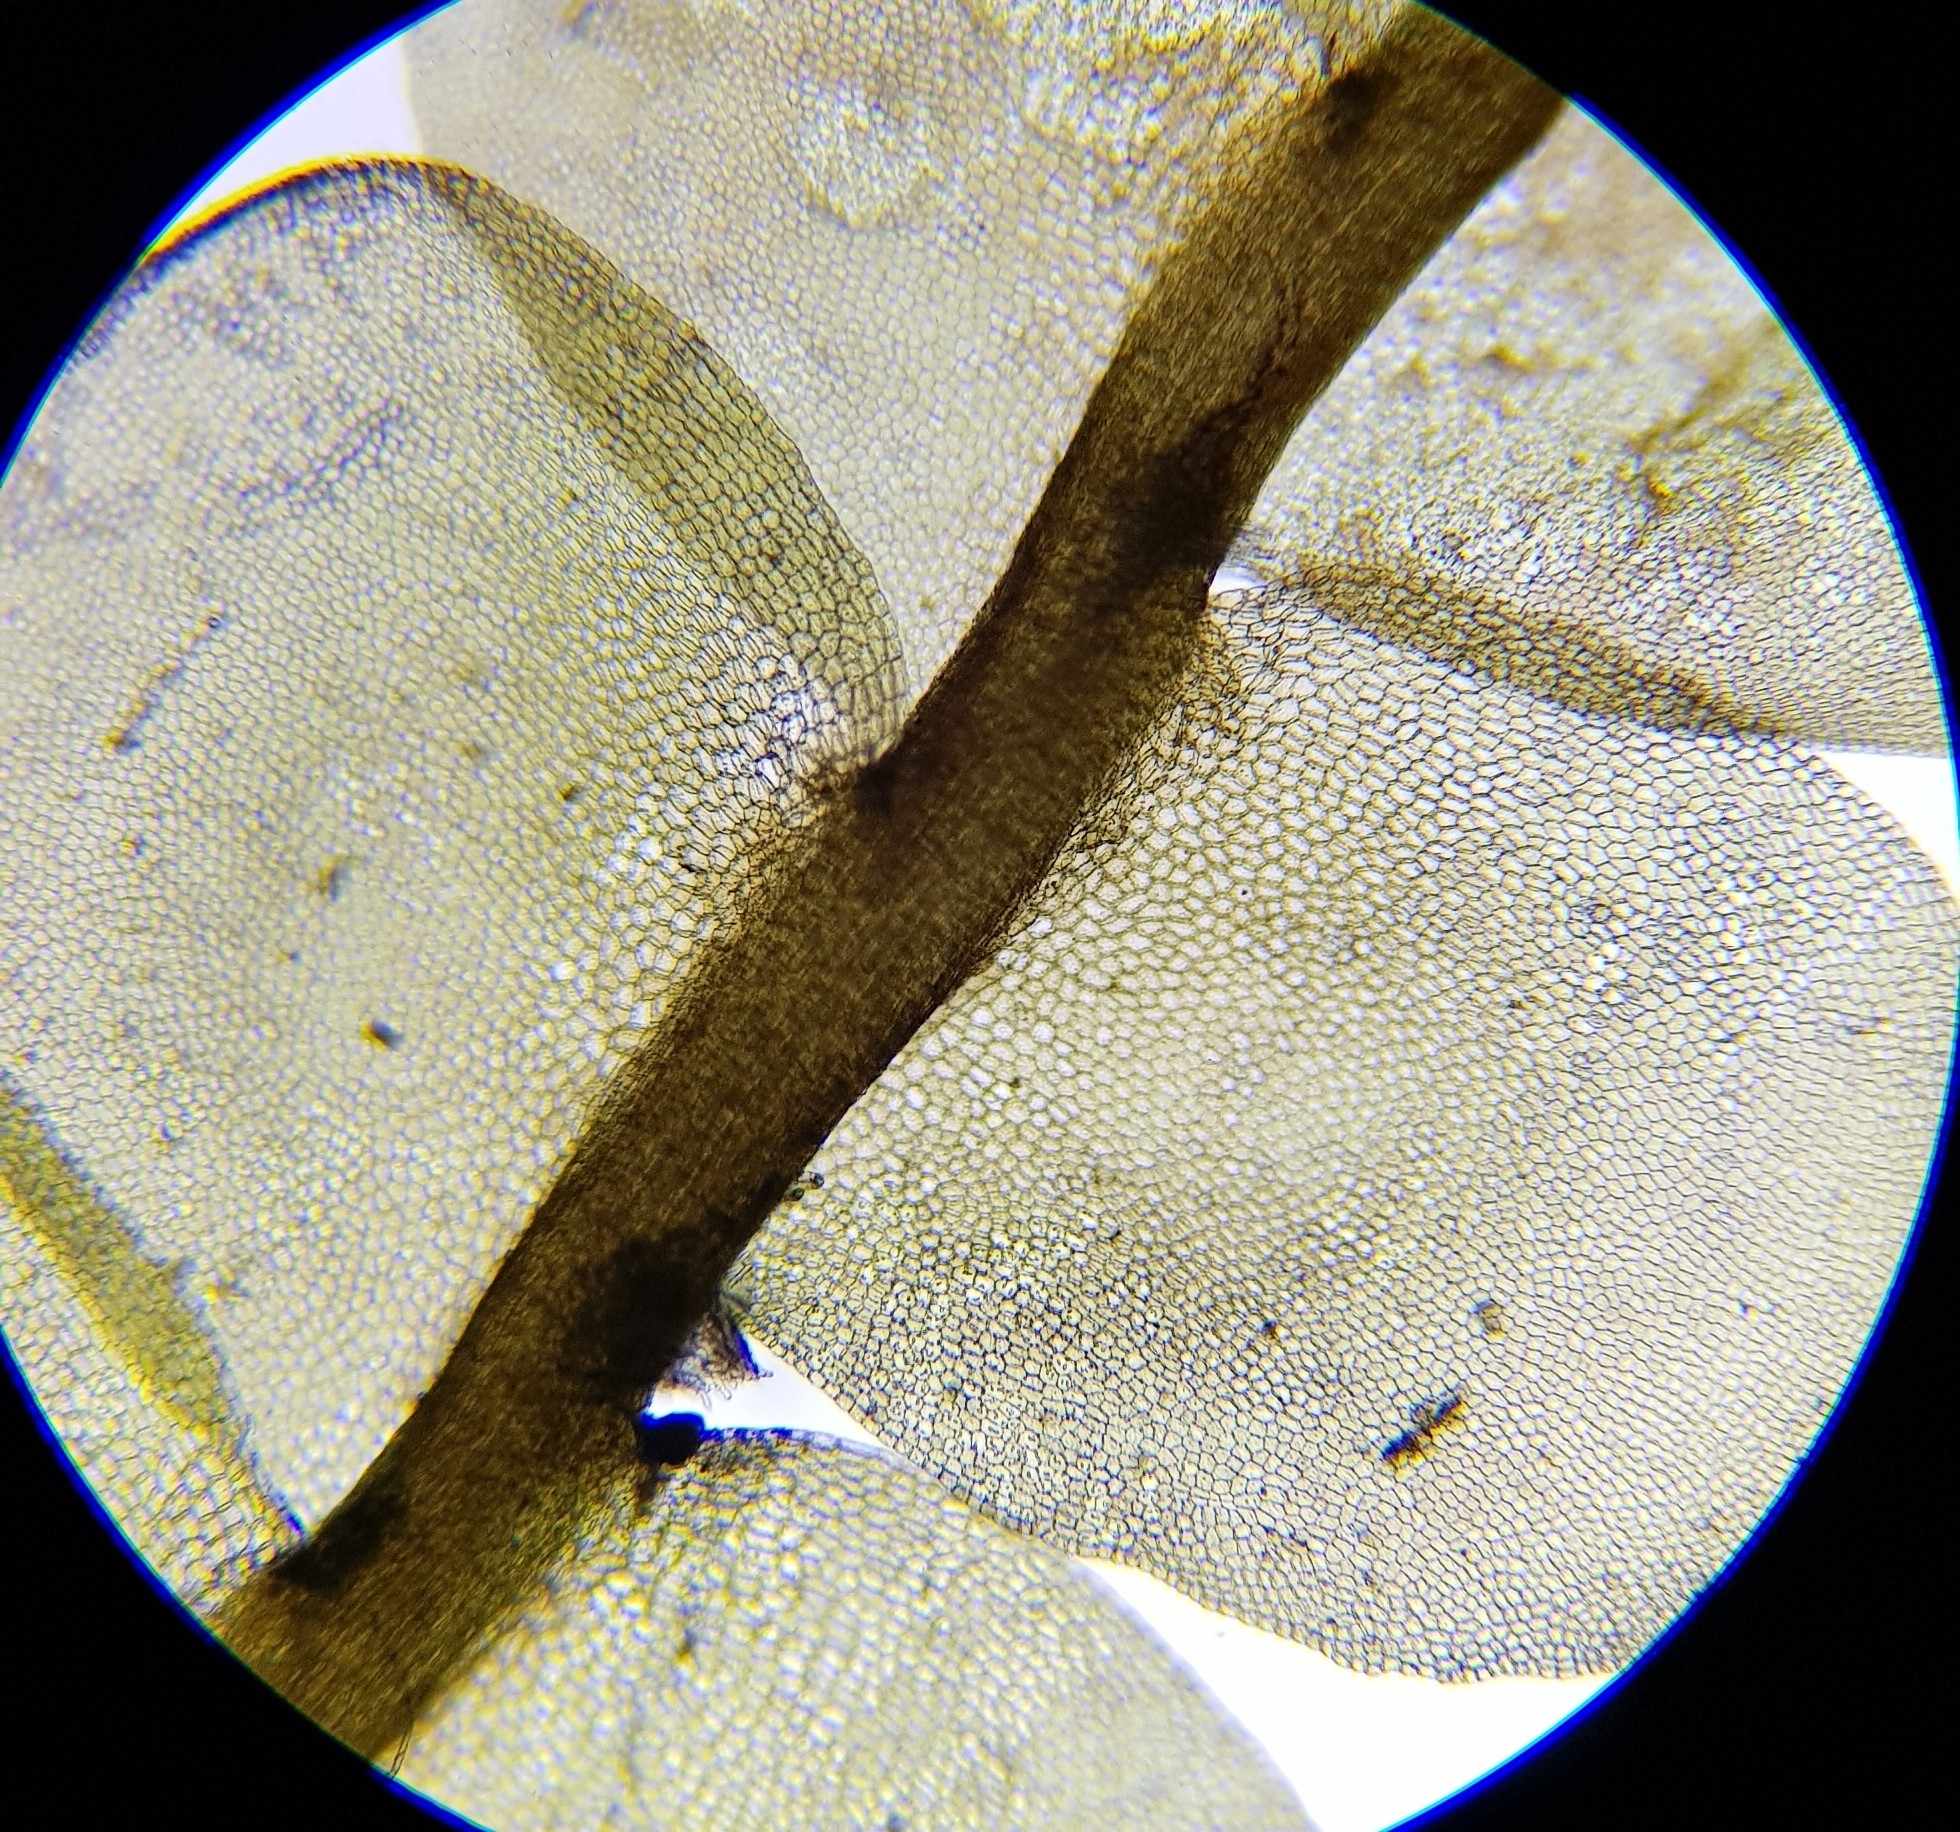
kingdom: Plantae
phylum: Marchantiophyta
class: Jungermanniopsida
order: Jungermanniales
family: Lophocoleaceae
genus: Chiloscyphus
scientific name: Chiloscyphus polyanthos
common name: Square-leaved crestwort
